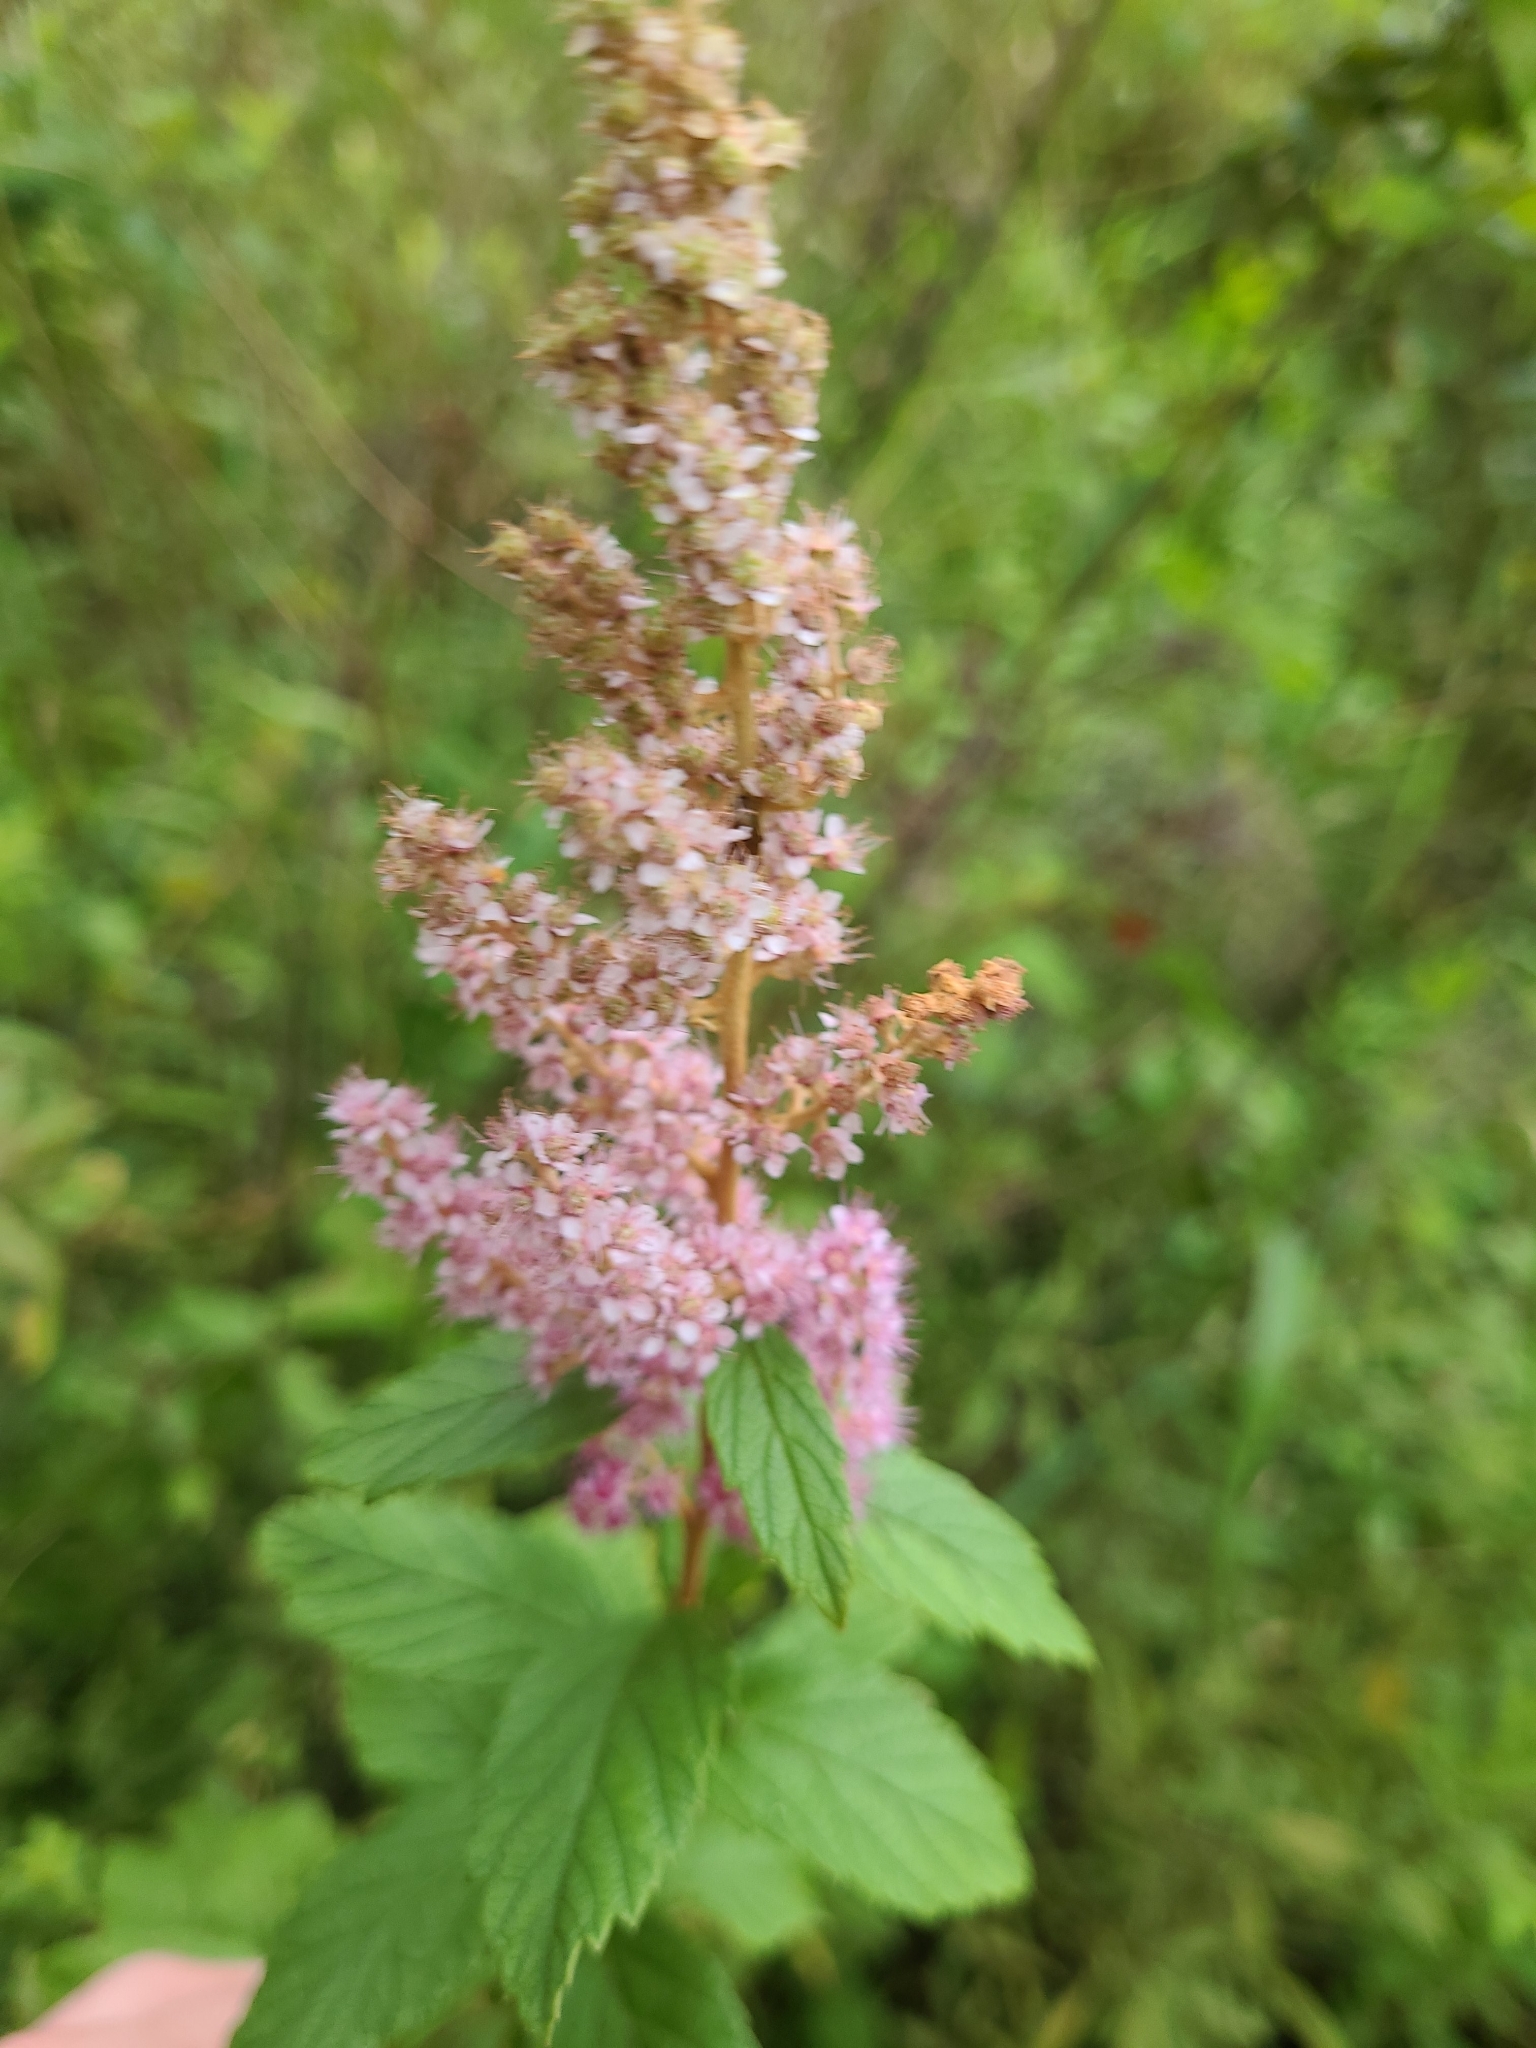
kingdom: Plantae
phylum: Tracheophyta
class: Magnoliopsida
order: Rosales
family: Rosaceae
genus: Spiraea
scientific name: Spiraea tomentosa
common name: Hardhack
